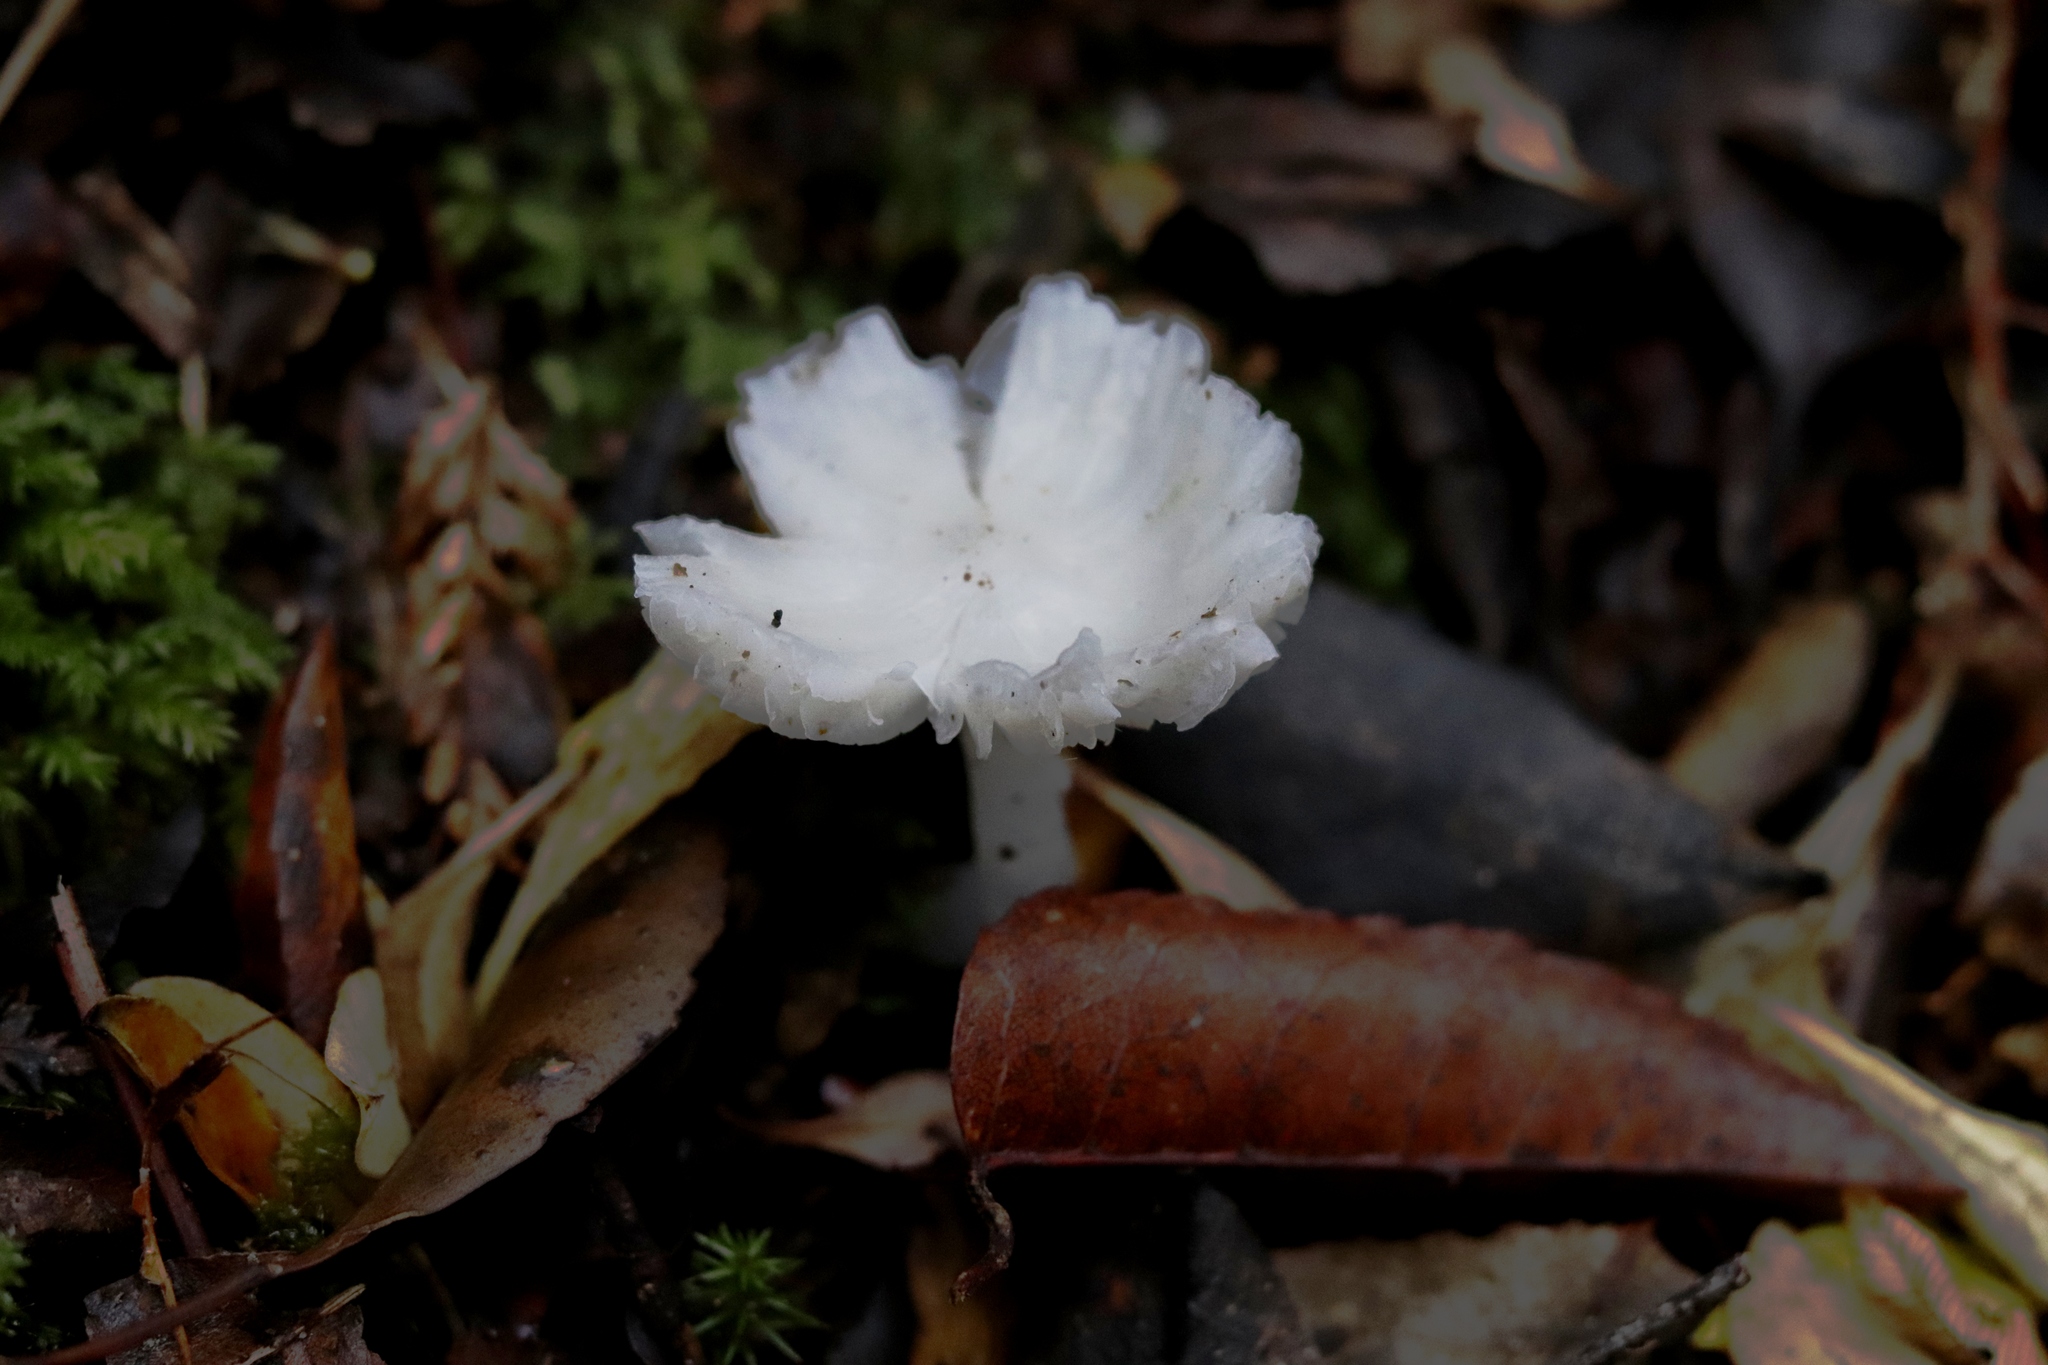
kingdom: Fungi
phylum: Basidiomycota
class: Agaricomycetes
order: Agaricales
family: Hygrophoraceae
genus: Humidicutis
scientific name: Humidicutis mavis
